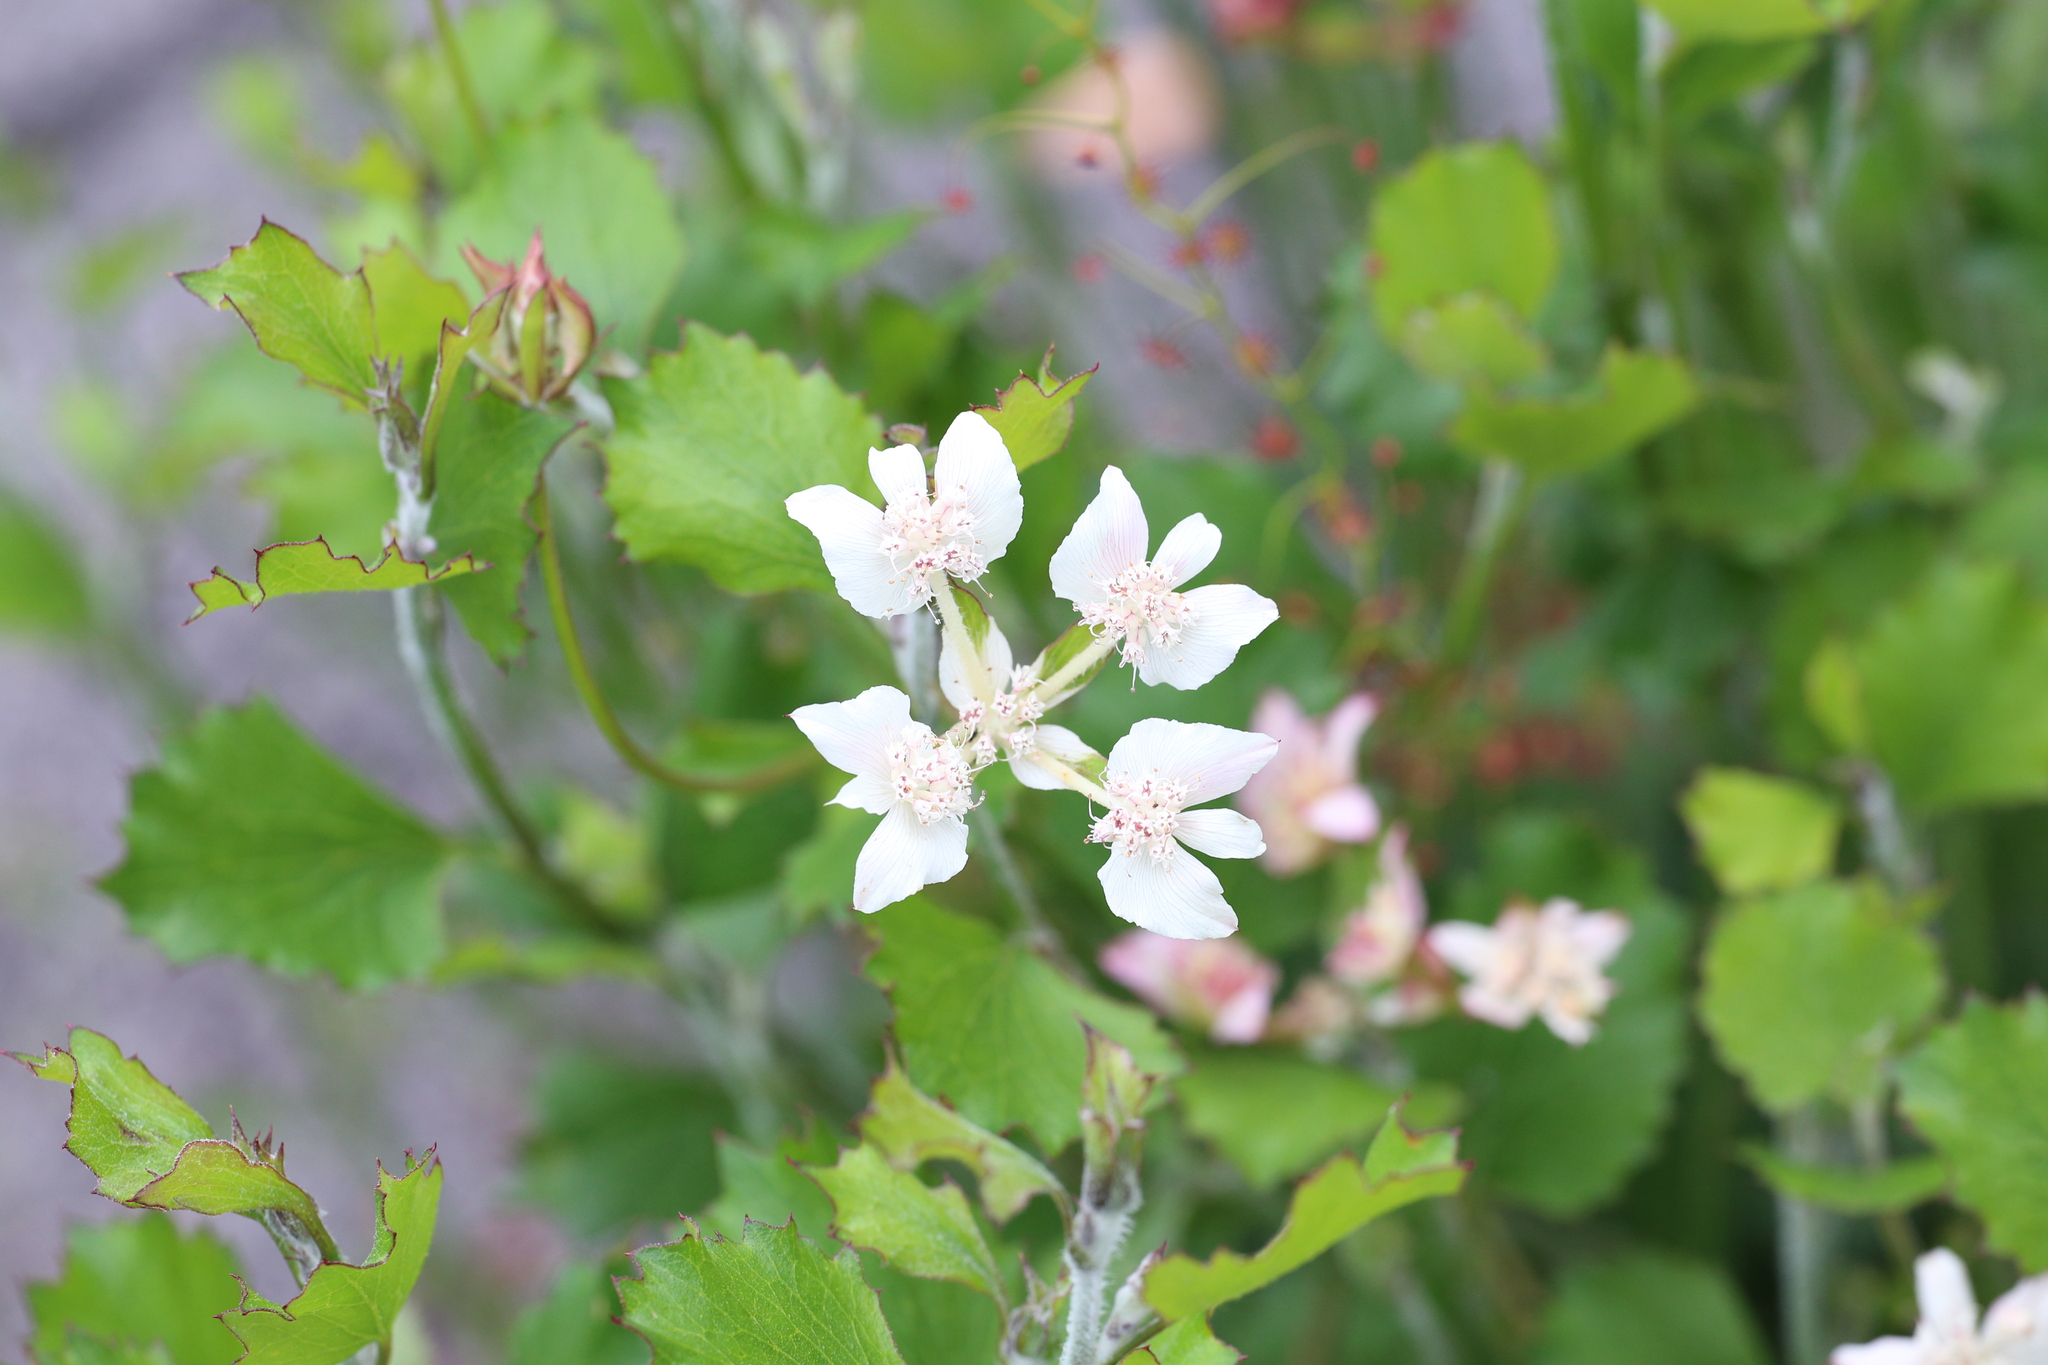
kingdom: Plantae
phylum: Tracheophyta
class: Magnoliopsida
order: Apiales
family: Apiaceae
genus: Xanthosia
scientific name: Xanthosia rotundifolia
